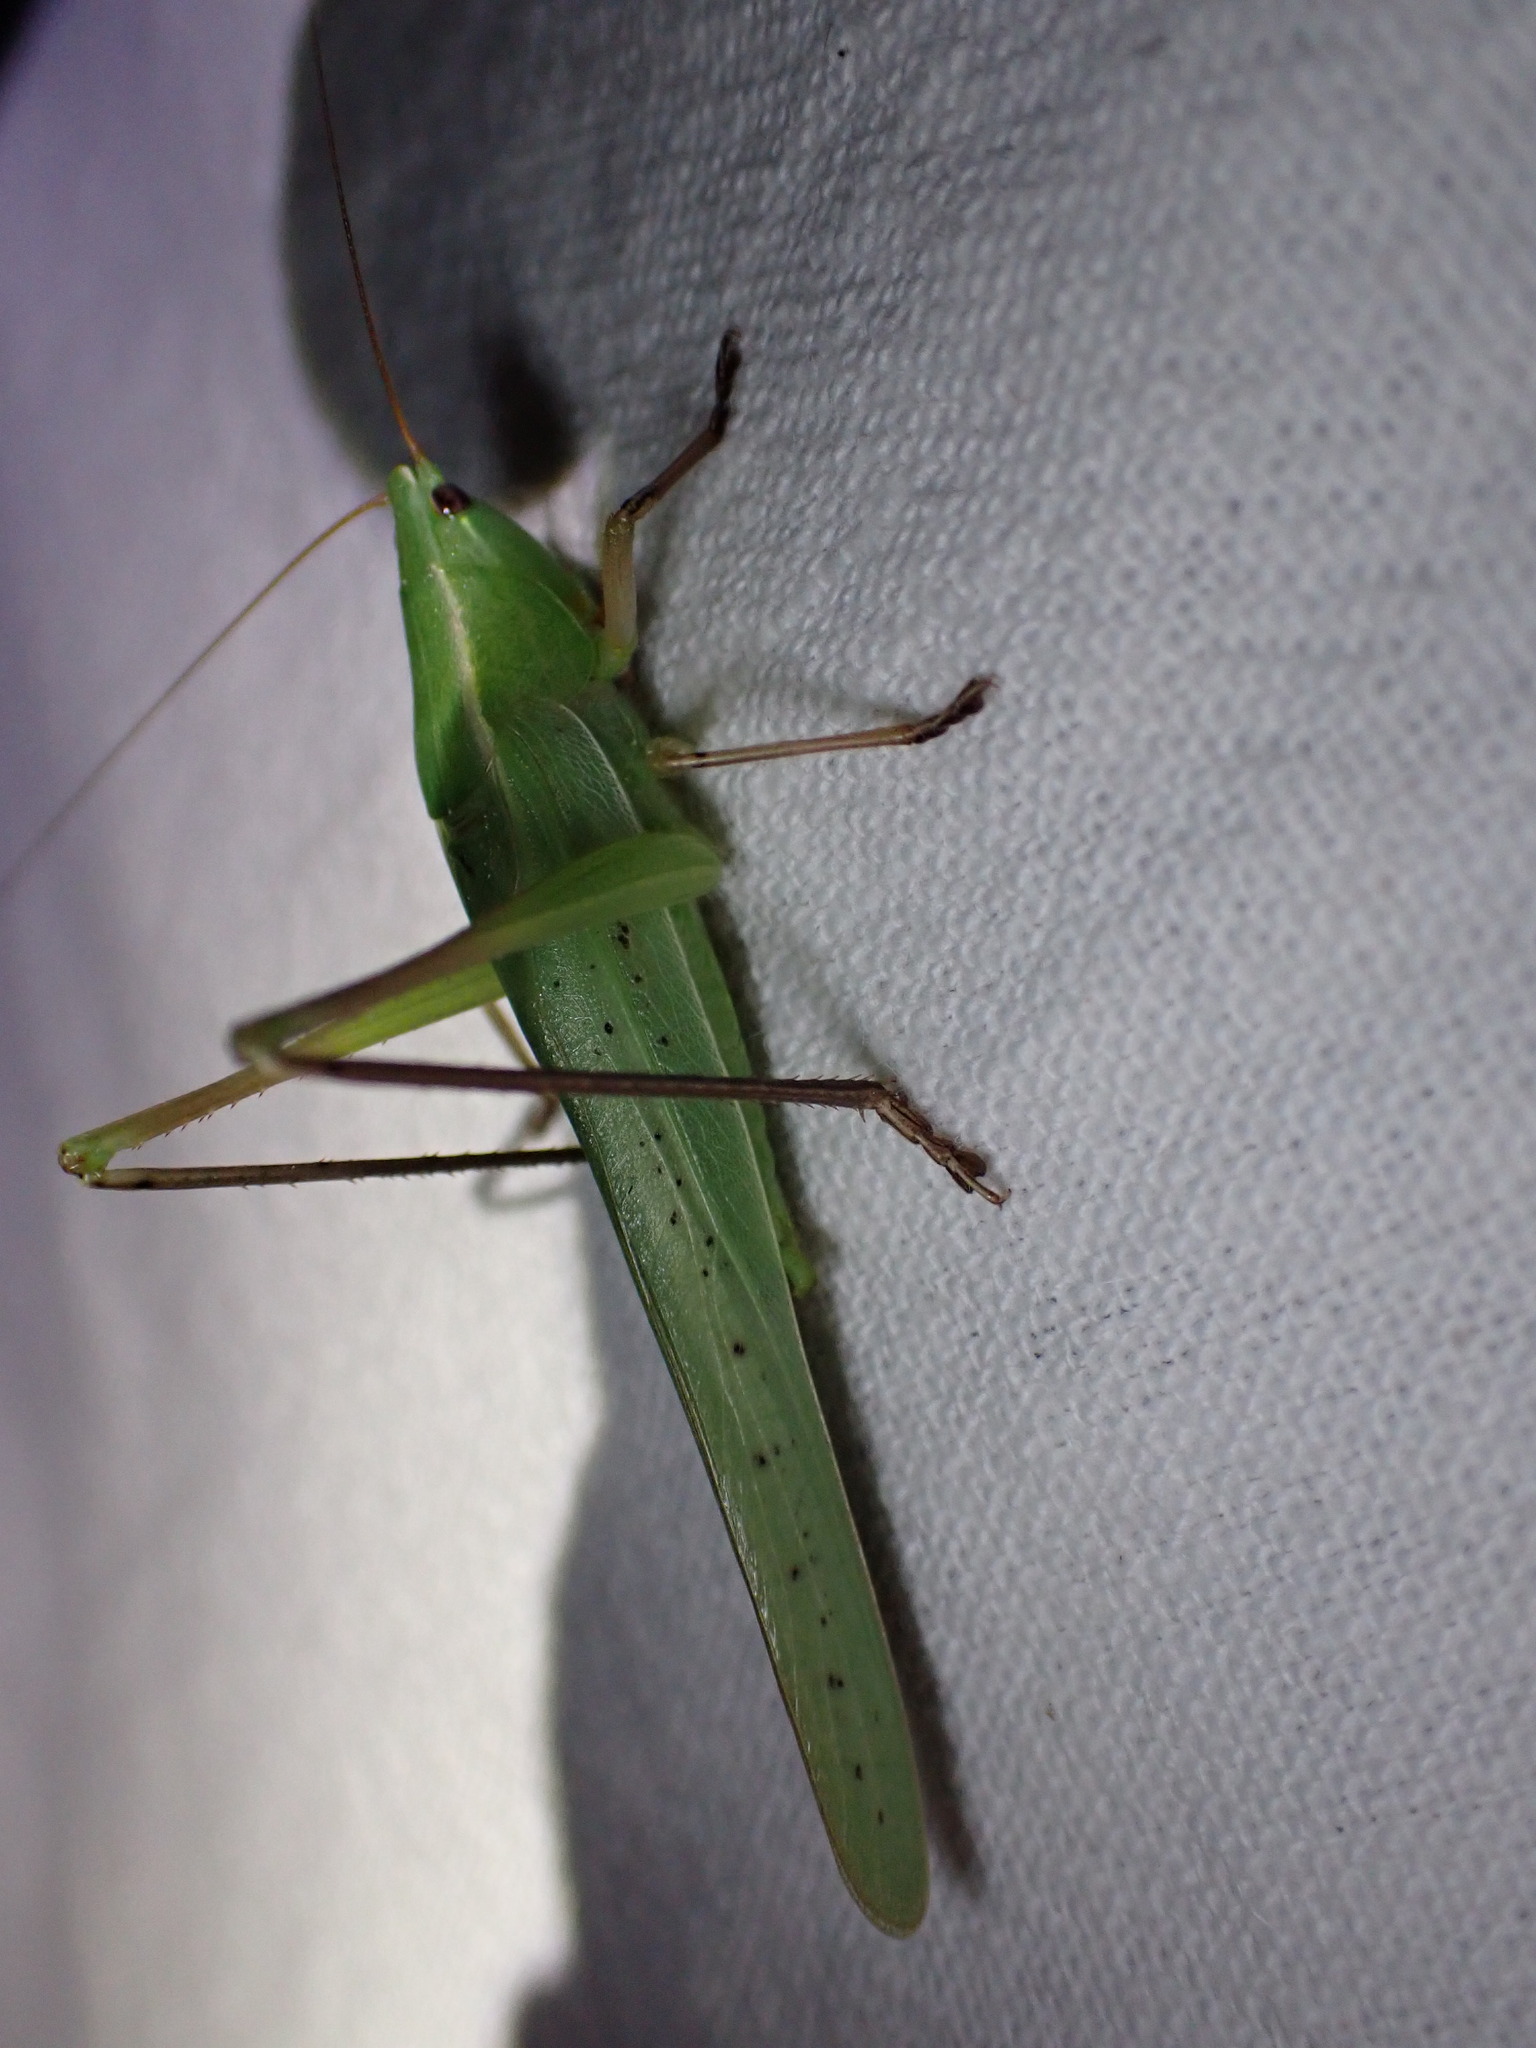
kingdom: Animalia
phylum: Arthropoda
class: Insecta
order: Orthoptera
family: Tettigoniidae
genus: Ruspolia
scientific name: Ruspolia nitidula
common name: Large conehead
